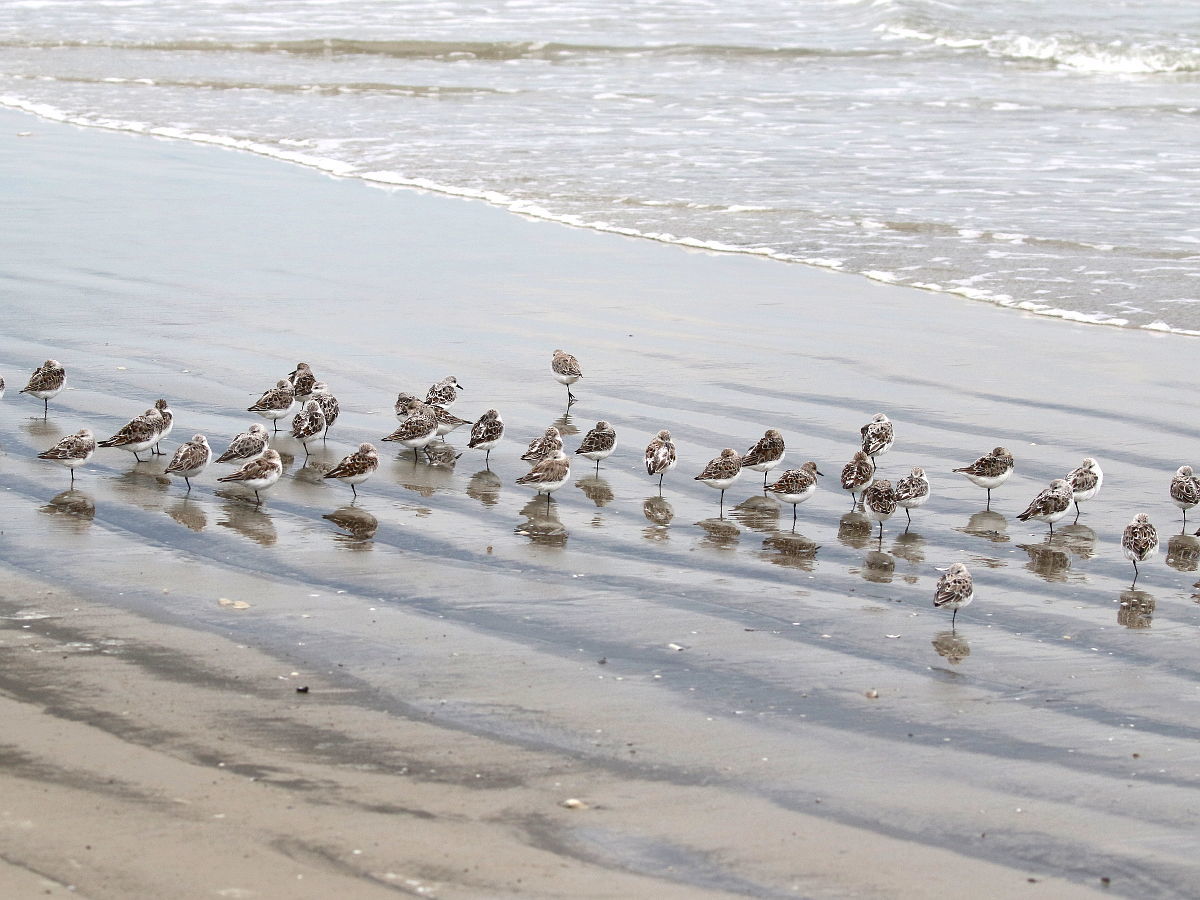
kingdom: Animalia
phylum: Chordata
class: Aves
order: Charadriiformes
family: Scolopacidae
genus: Calidris
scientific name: Calidris alba
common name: Sanderling
